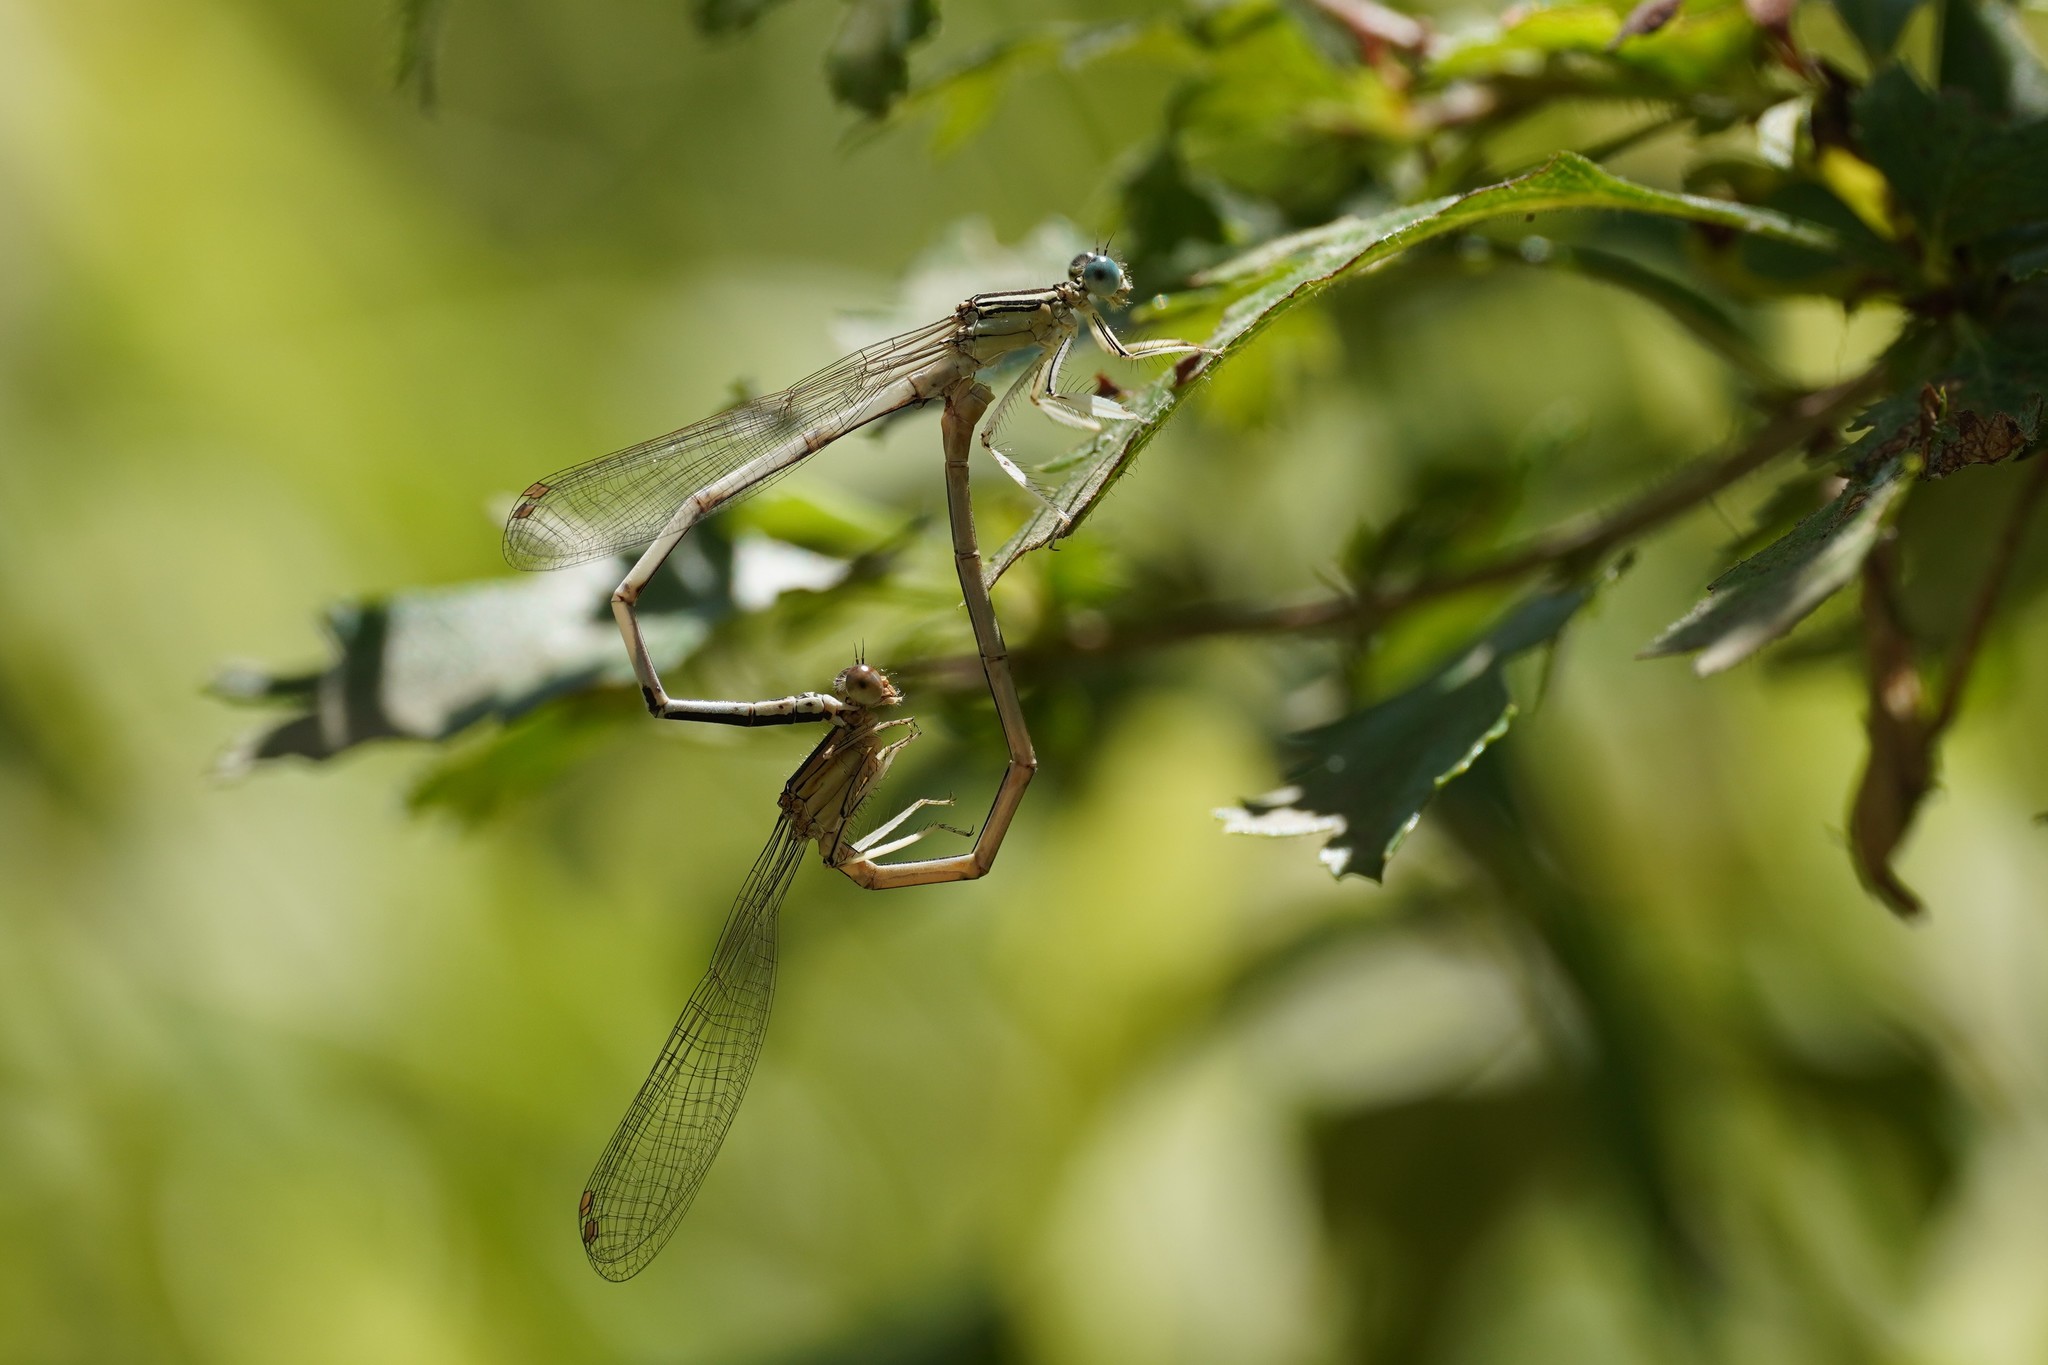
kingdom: Animalia
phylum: Arthropoda
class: Insecta
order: Odonata
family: Platycnemididae
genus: Platycnemis
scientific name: Platycnemis latipes
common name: White featherleg
